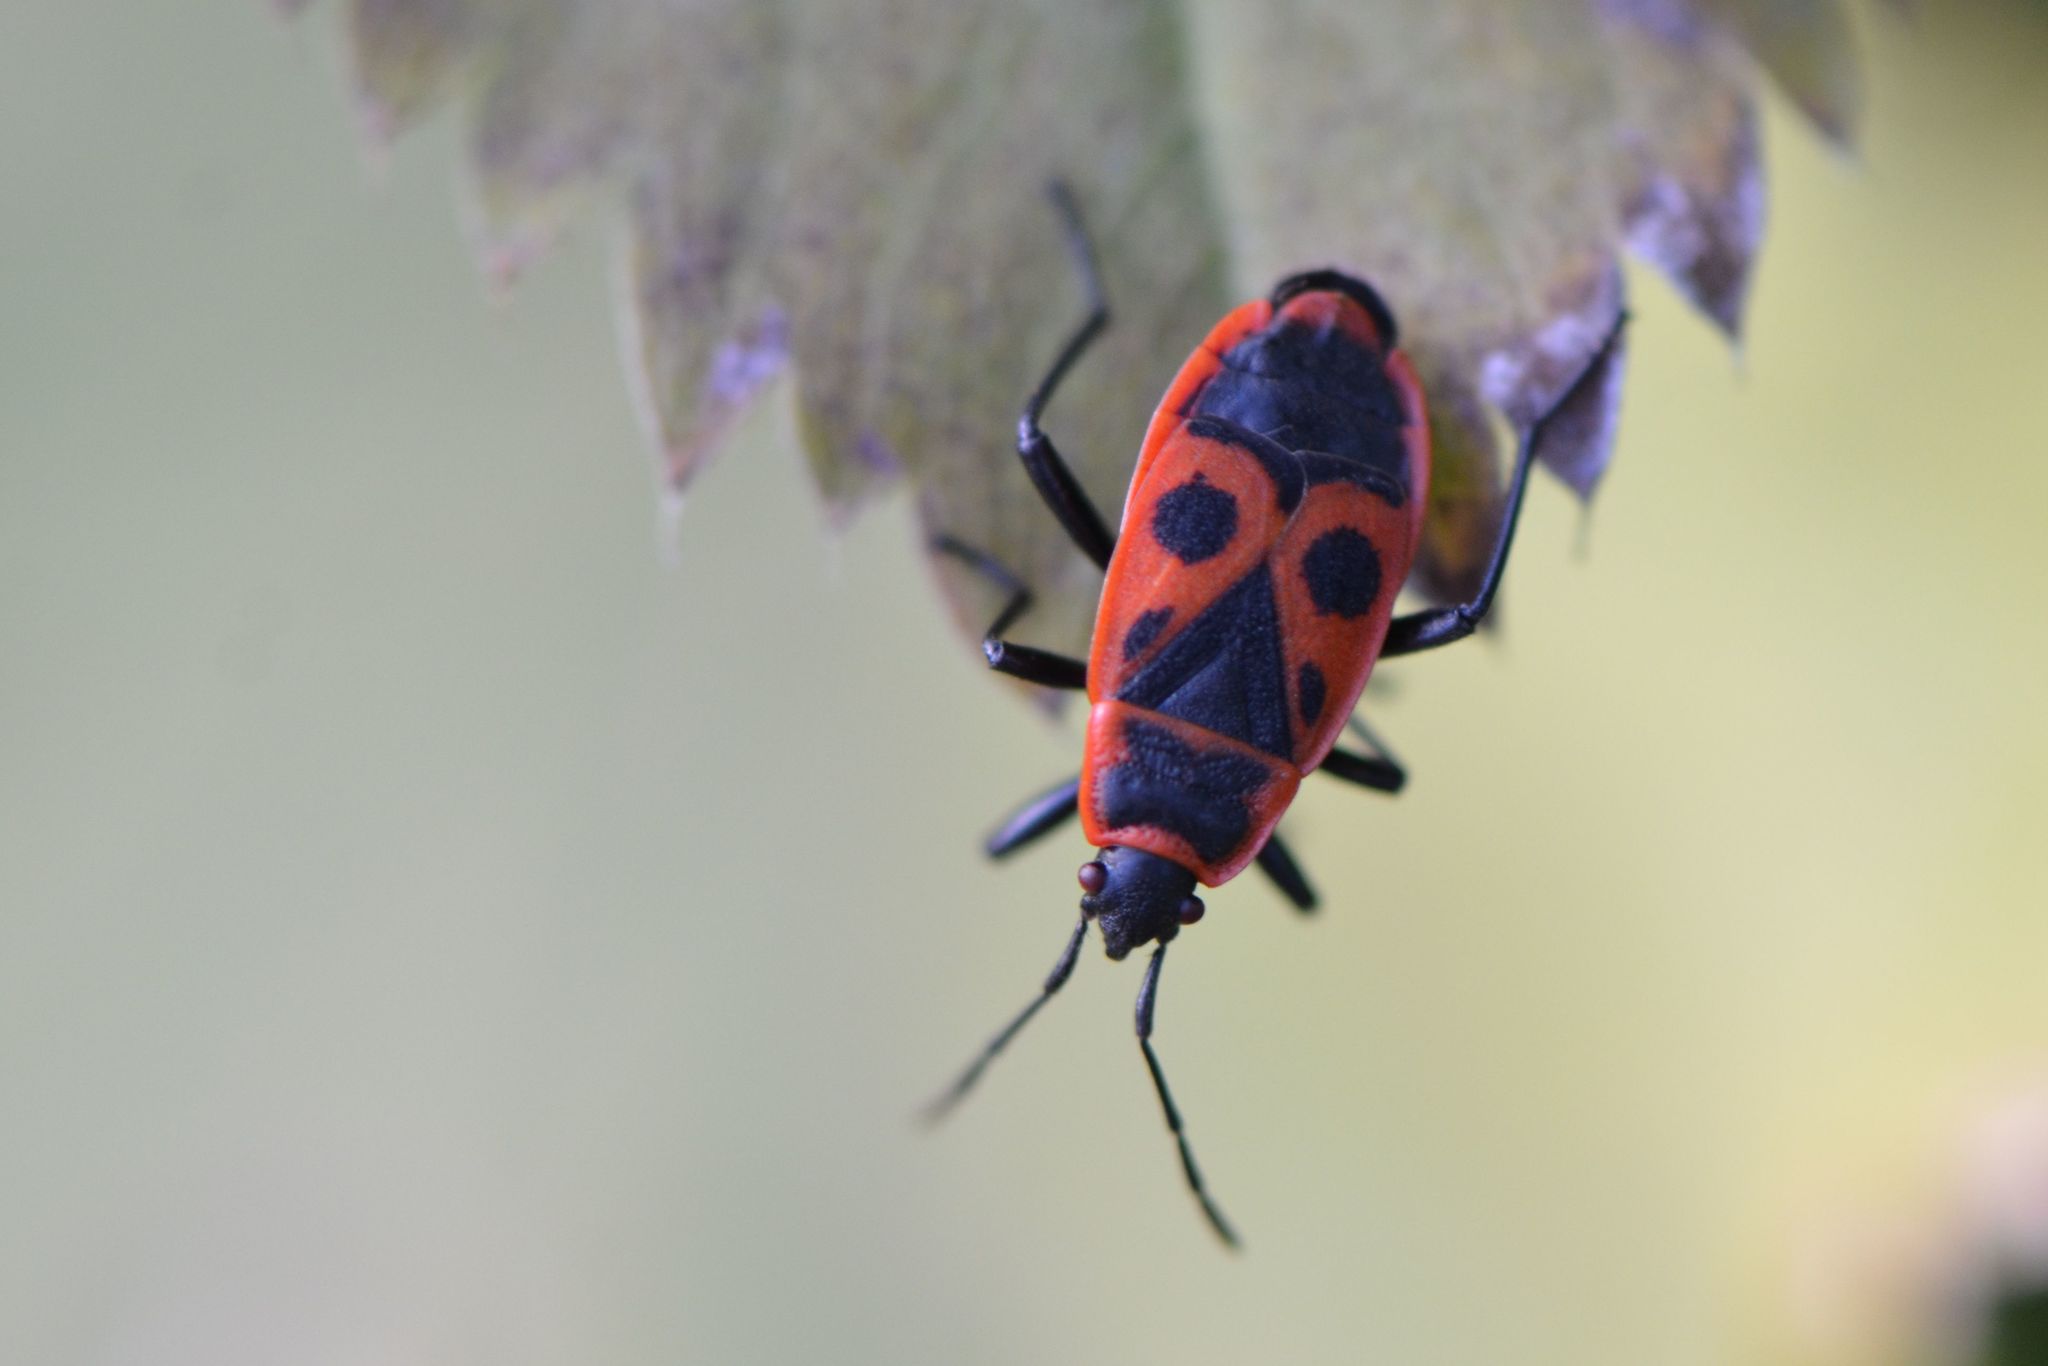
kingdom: Animalia
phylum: Arthropoda
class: Insecta
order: Hemiptera
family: Pyrrhocoridae
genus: Pyrrhocoris
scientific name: Pyrrhocoris apterus
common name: Firebug
